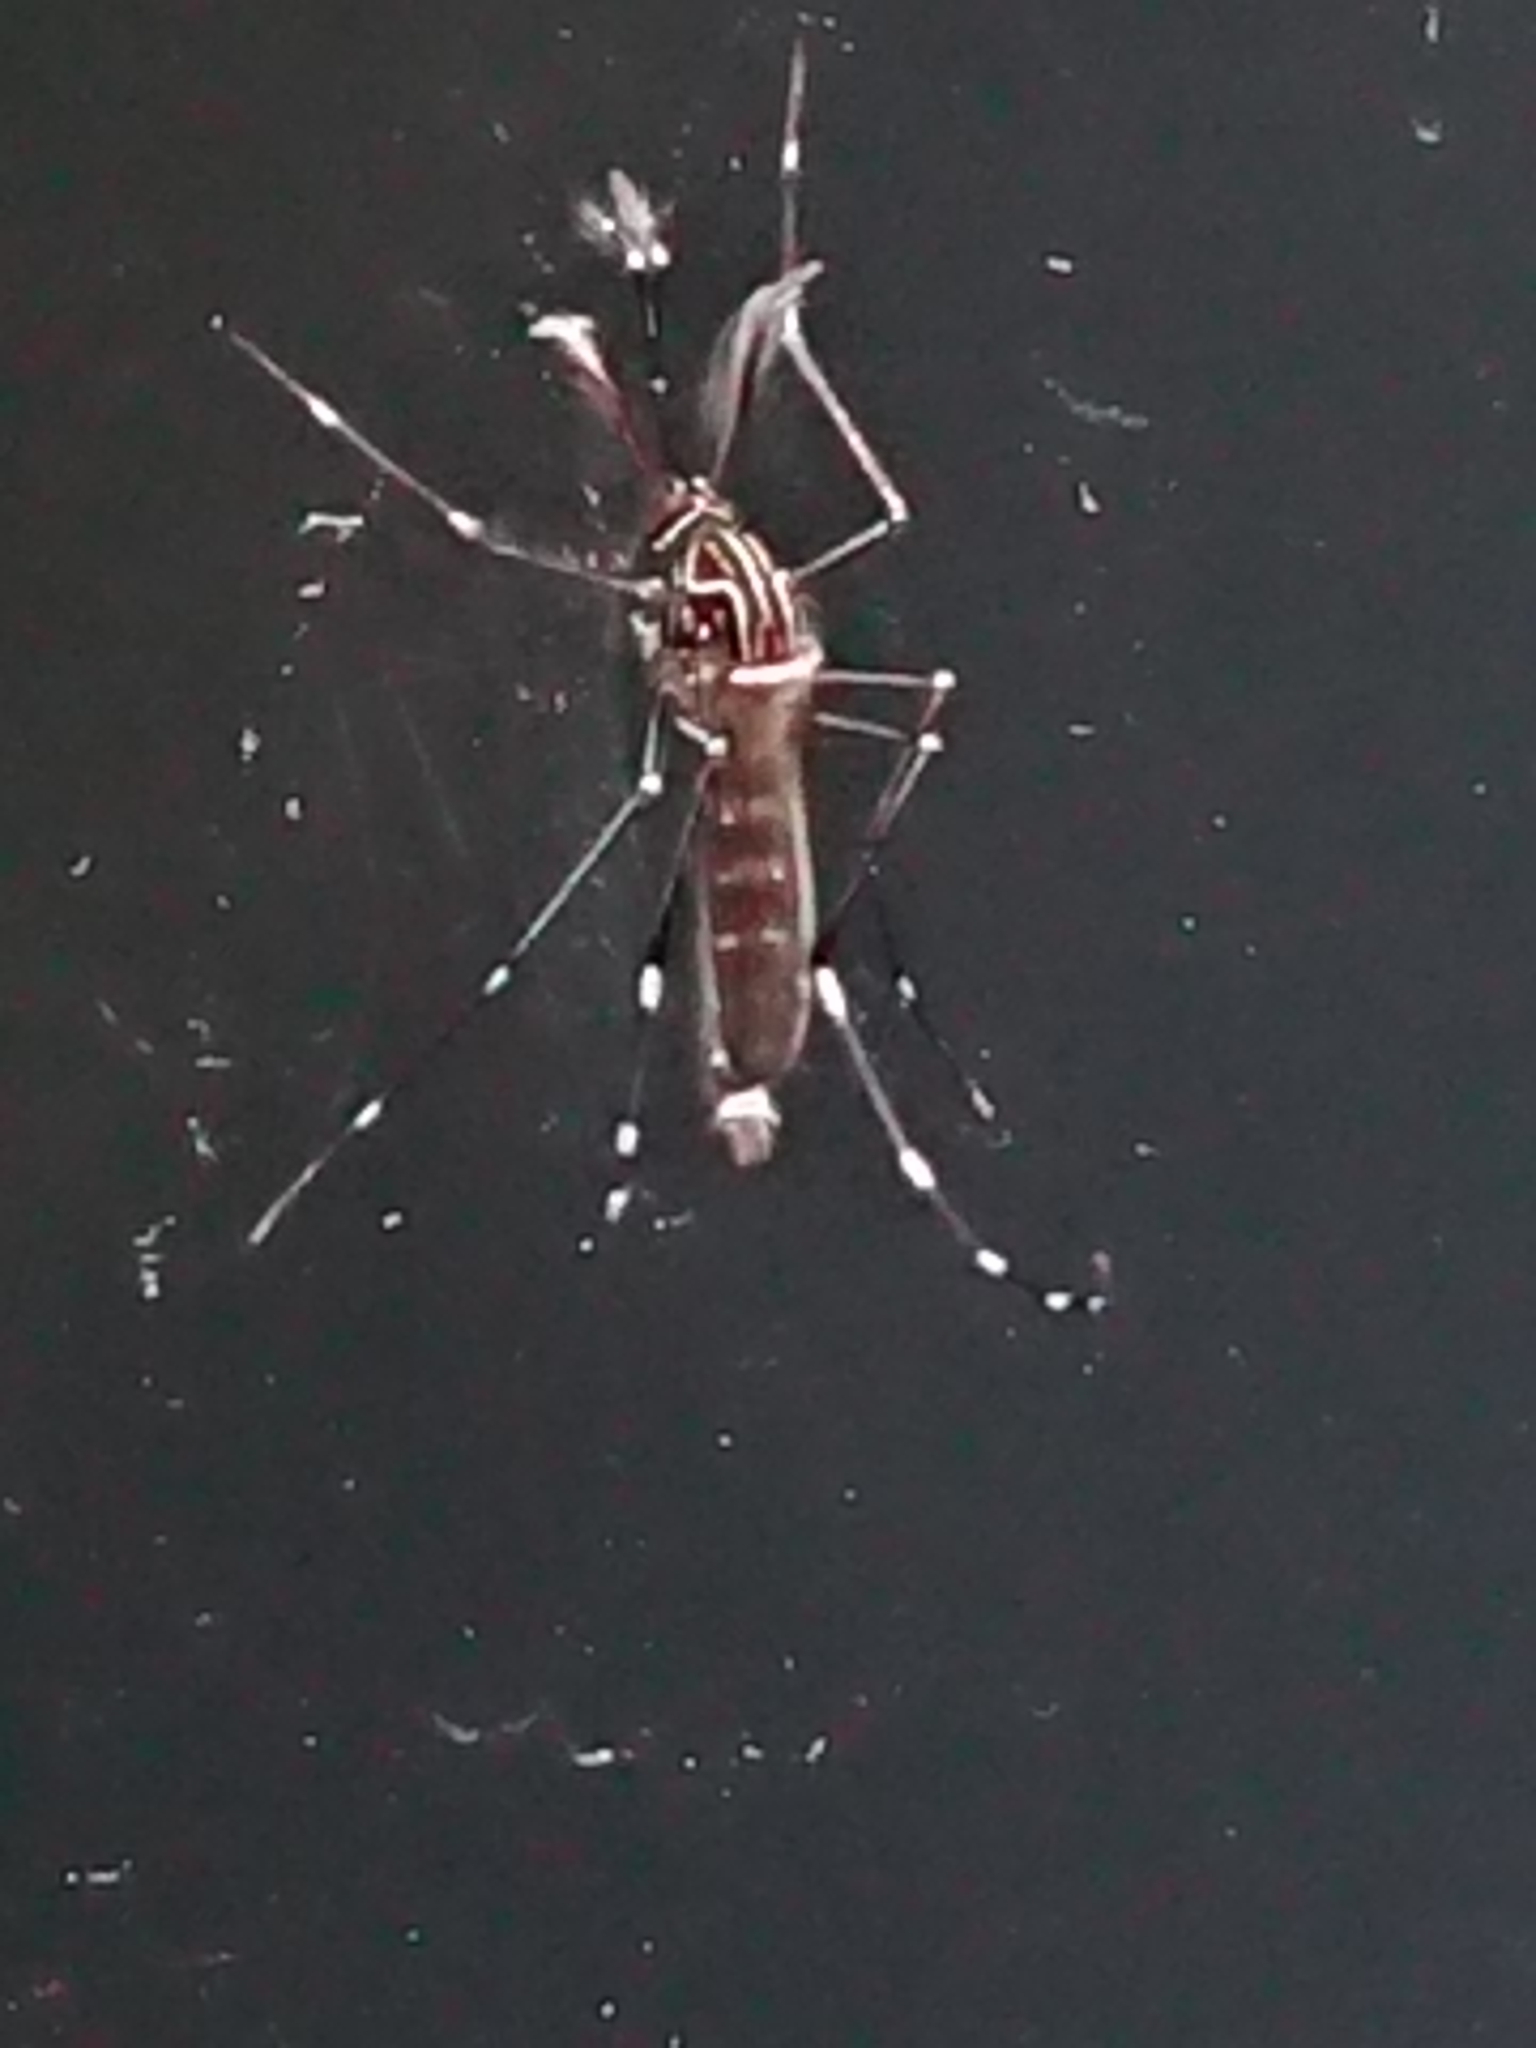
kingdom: Animalia
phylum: Arthropoda
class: Insecta
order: Diptera
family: Culicidae
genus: Aedes
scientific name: Aedes notoscriptus
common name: Australian backyard mosquito
